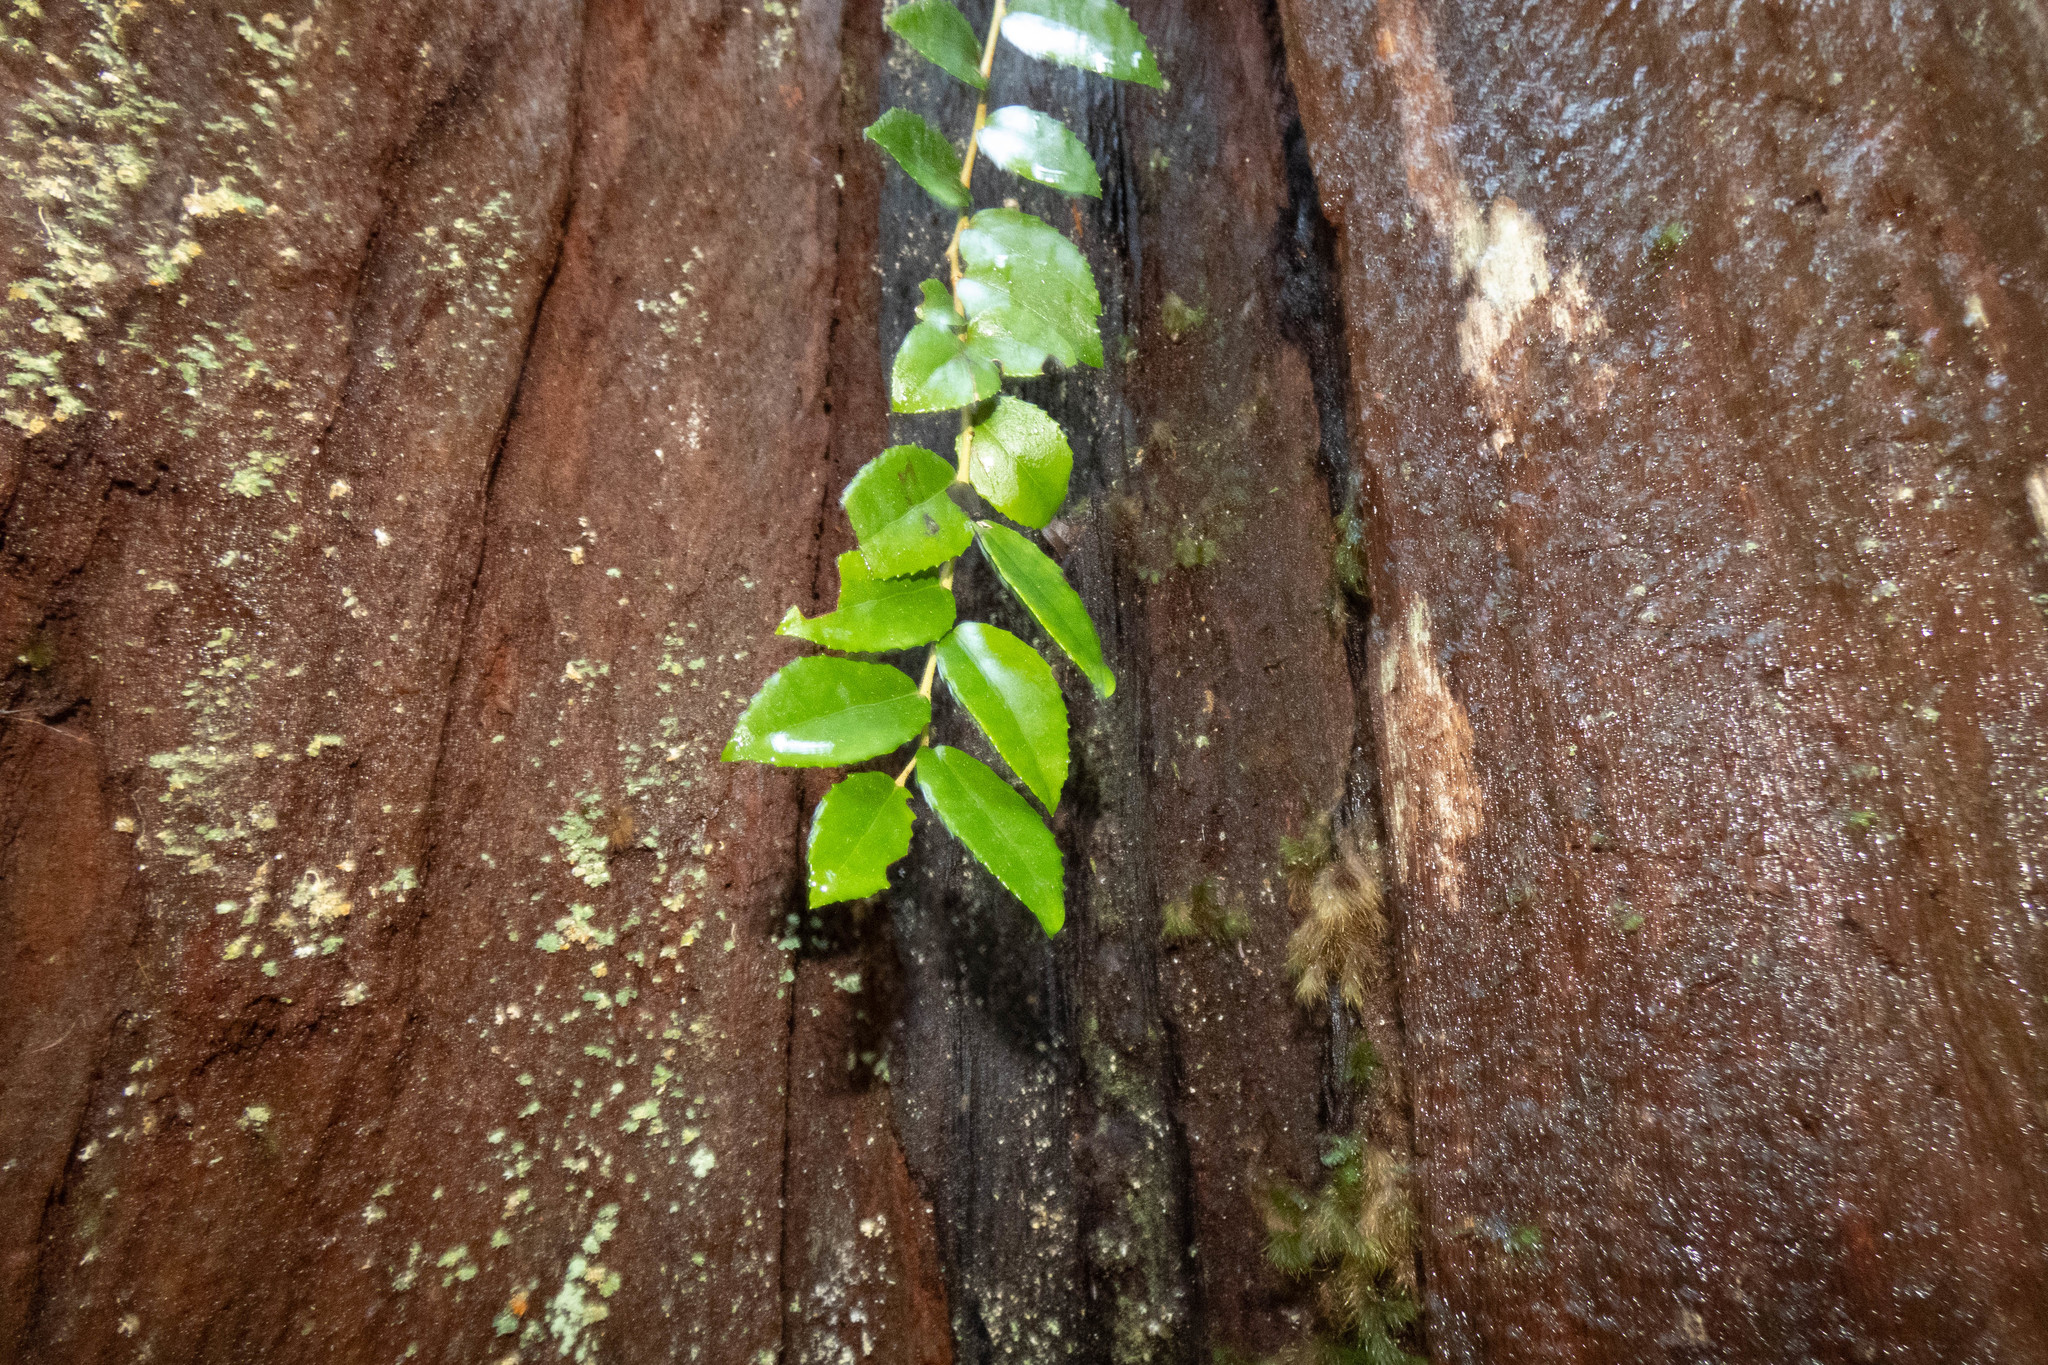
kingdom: Plantae
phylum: Tracheophyta
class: Magnoliopsida
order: Ericales
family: Ericaceae
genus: Vaccinium
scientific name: Vaccinium ovatum
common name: California-huckleberry
